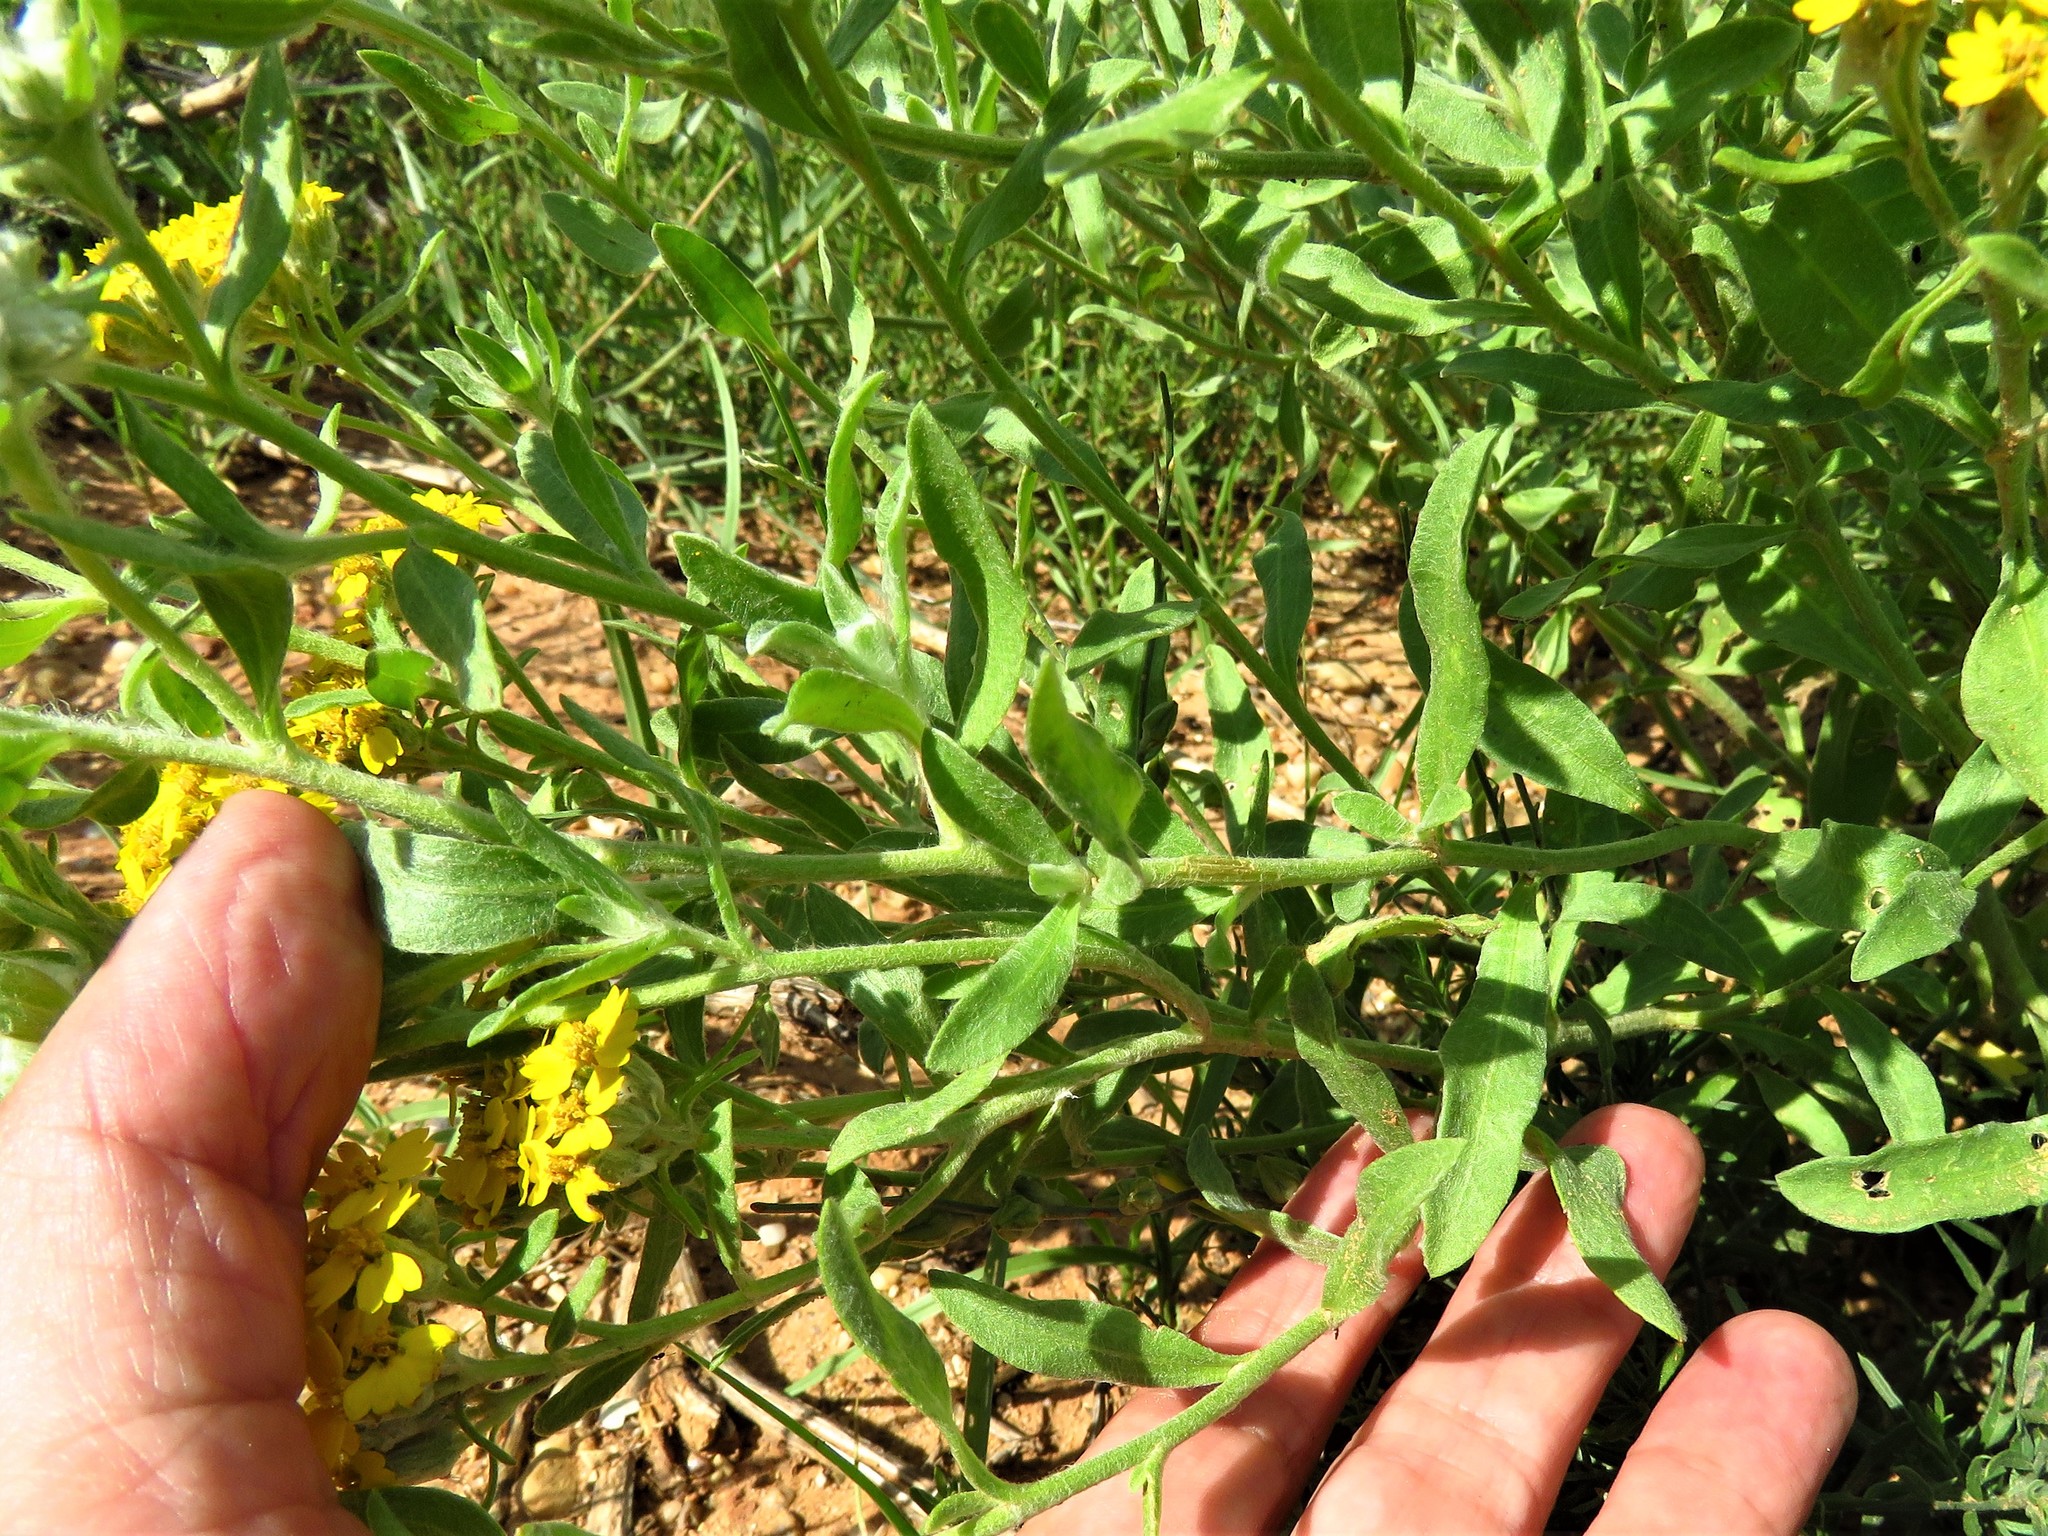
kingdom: Plantae
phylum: Tracheophyta
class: Magnoliopsida
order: Asterales
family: Asteraceae
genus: Psilostrophe
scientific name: Psilostrophe tagetina
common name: Marigold paper-flower
